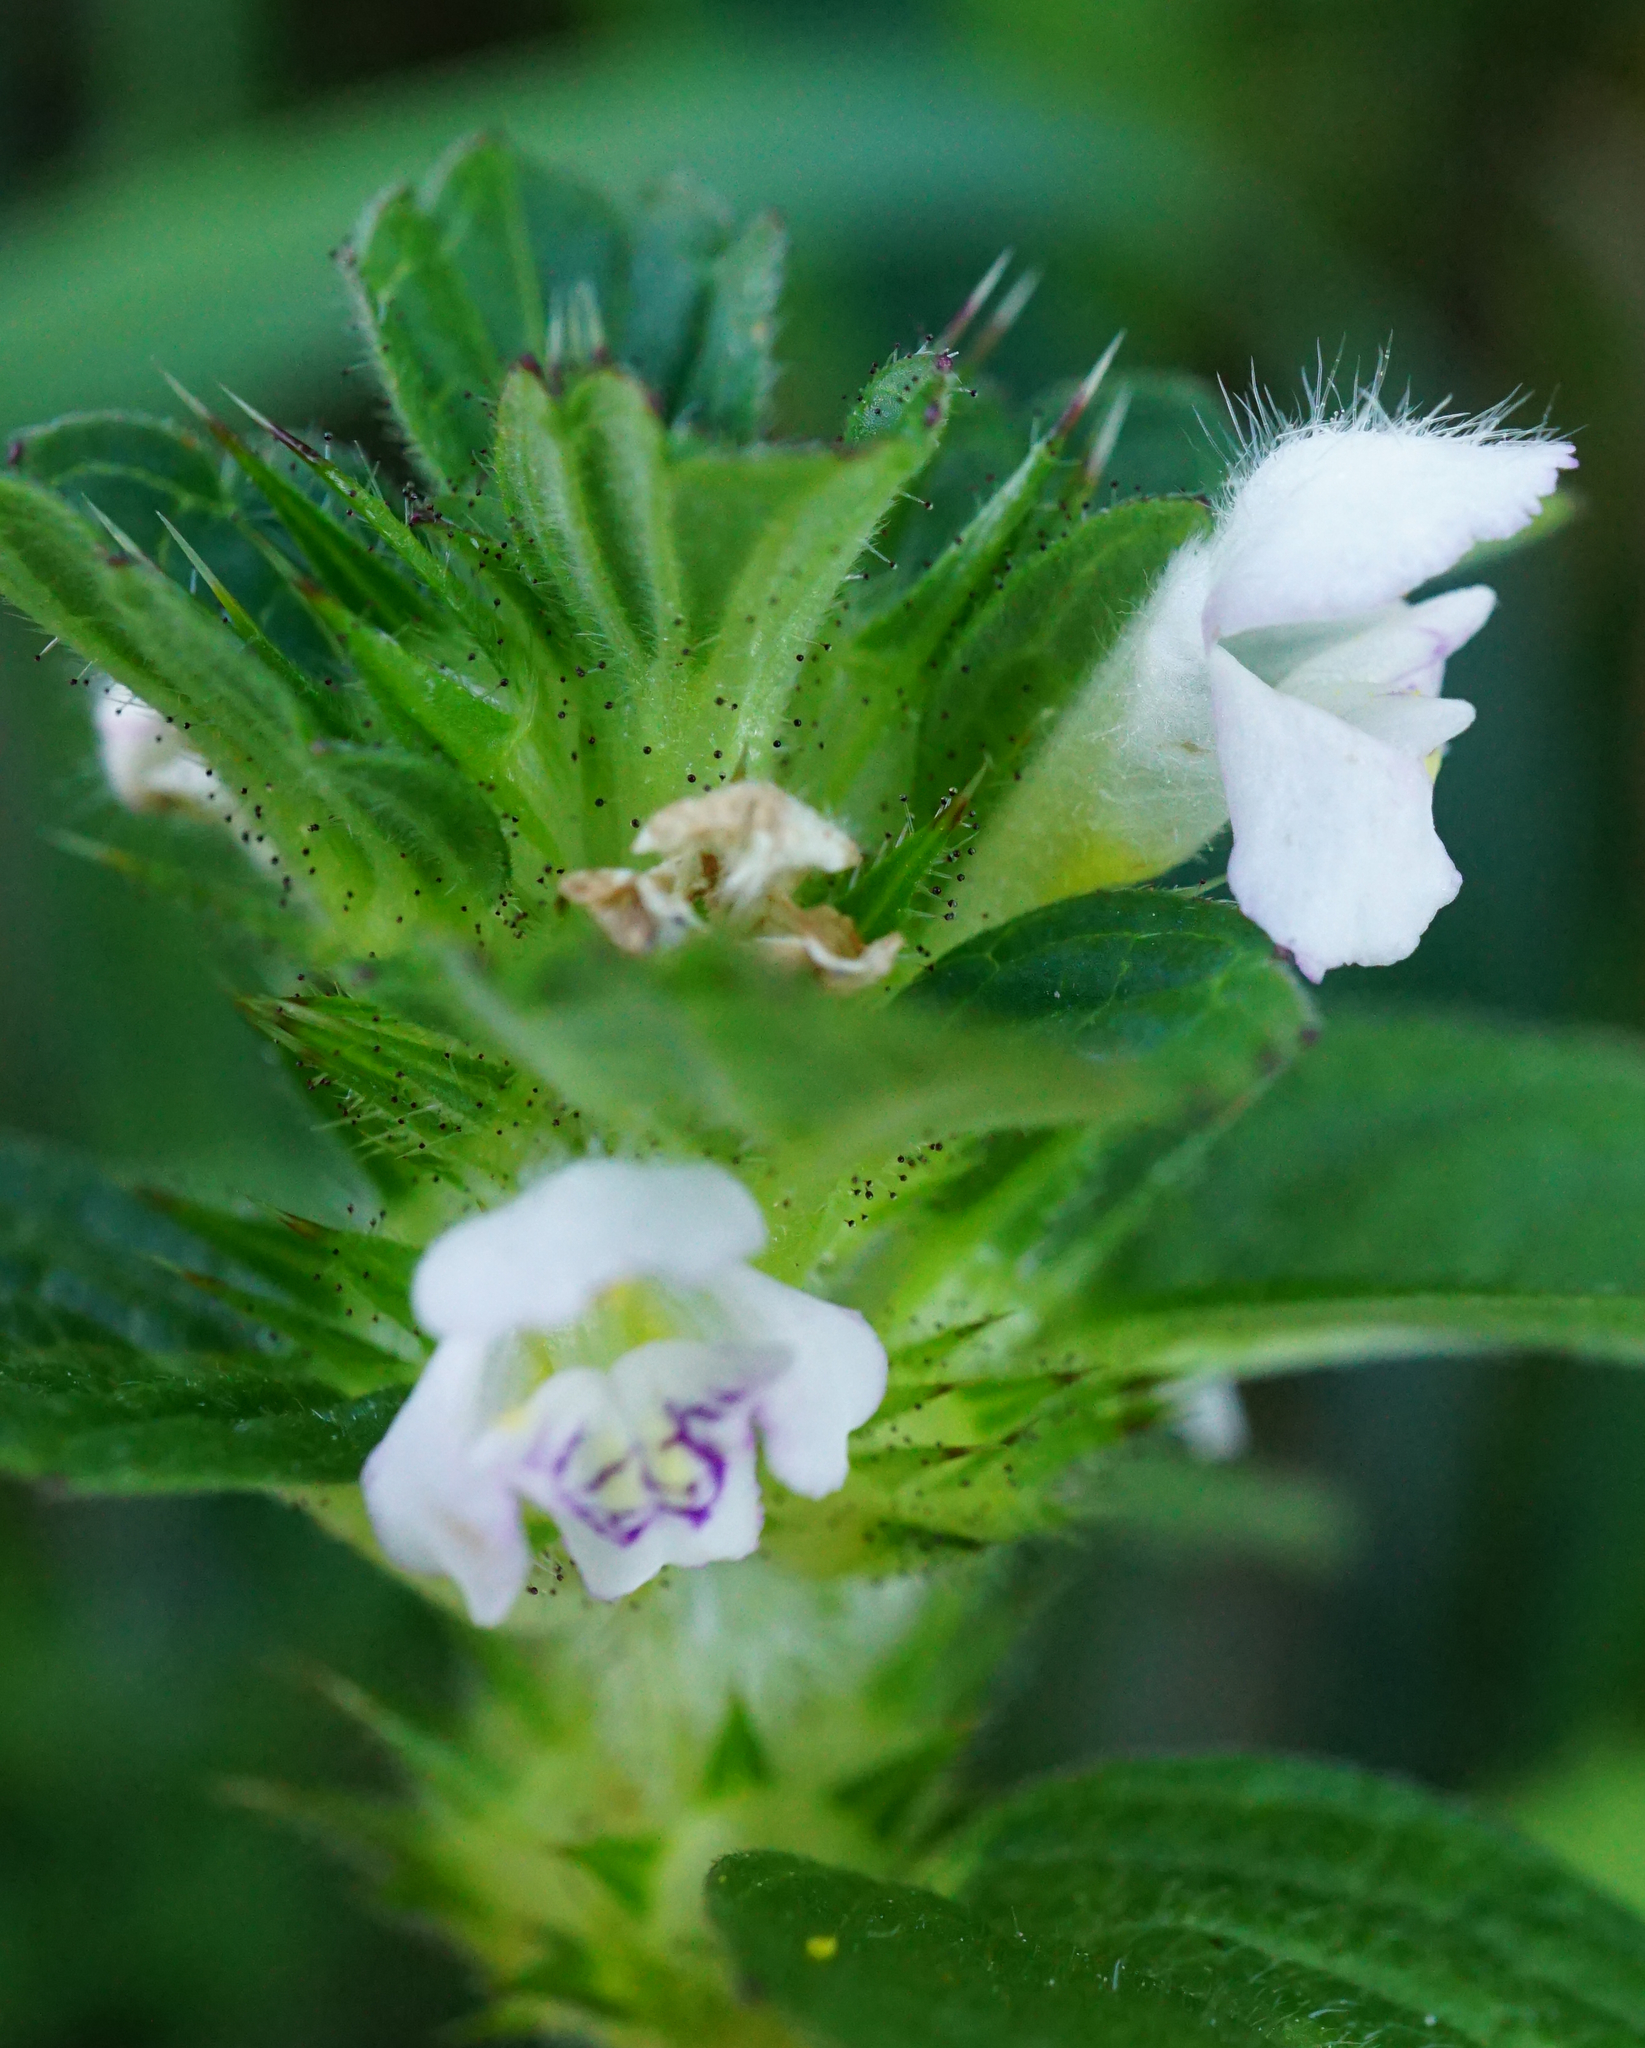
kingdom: Plantae
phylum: Tracheophyta
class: Magnoliopsida
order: Lamiales
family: Lamiaceae
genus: Galeopsis
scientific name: Galeopsis tetrahit
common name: Common hemp-nettle
